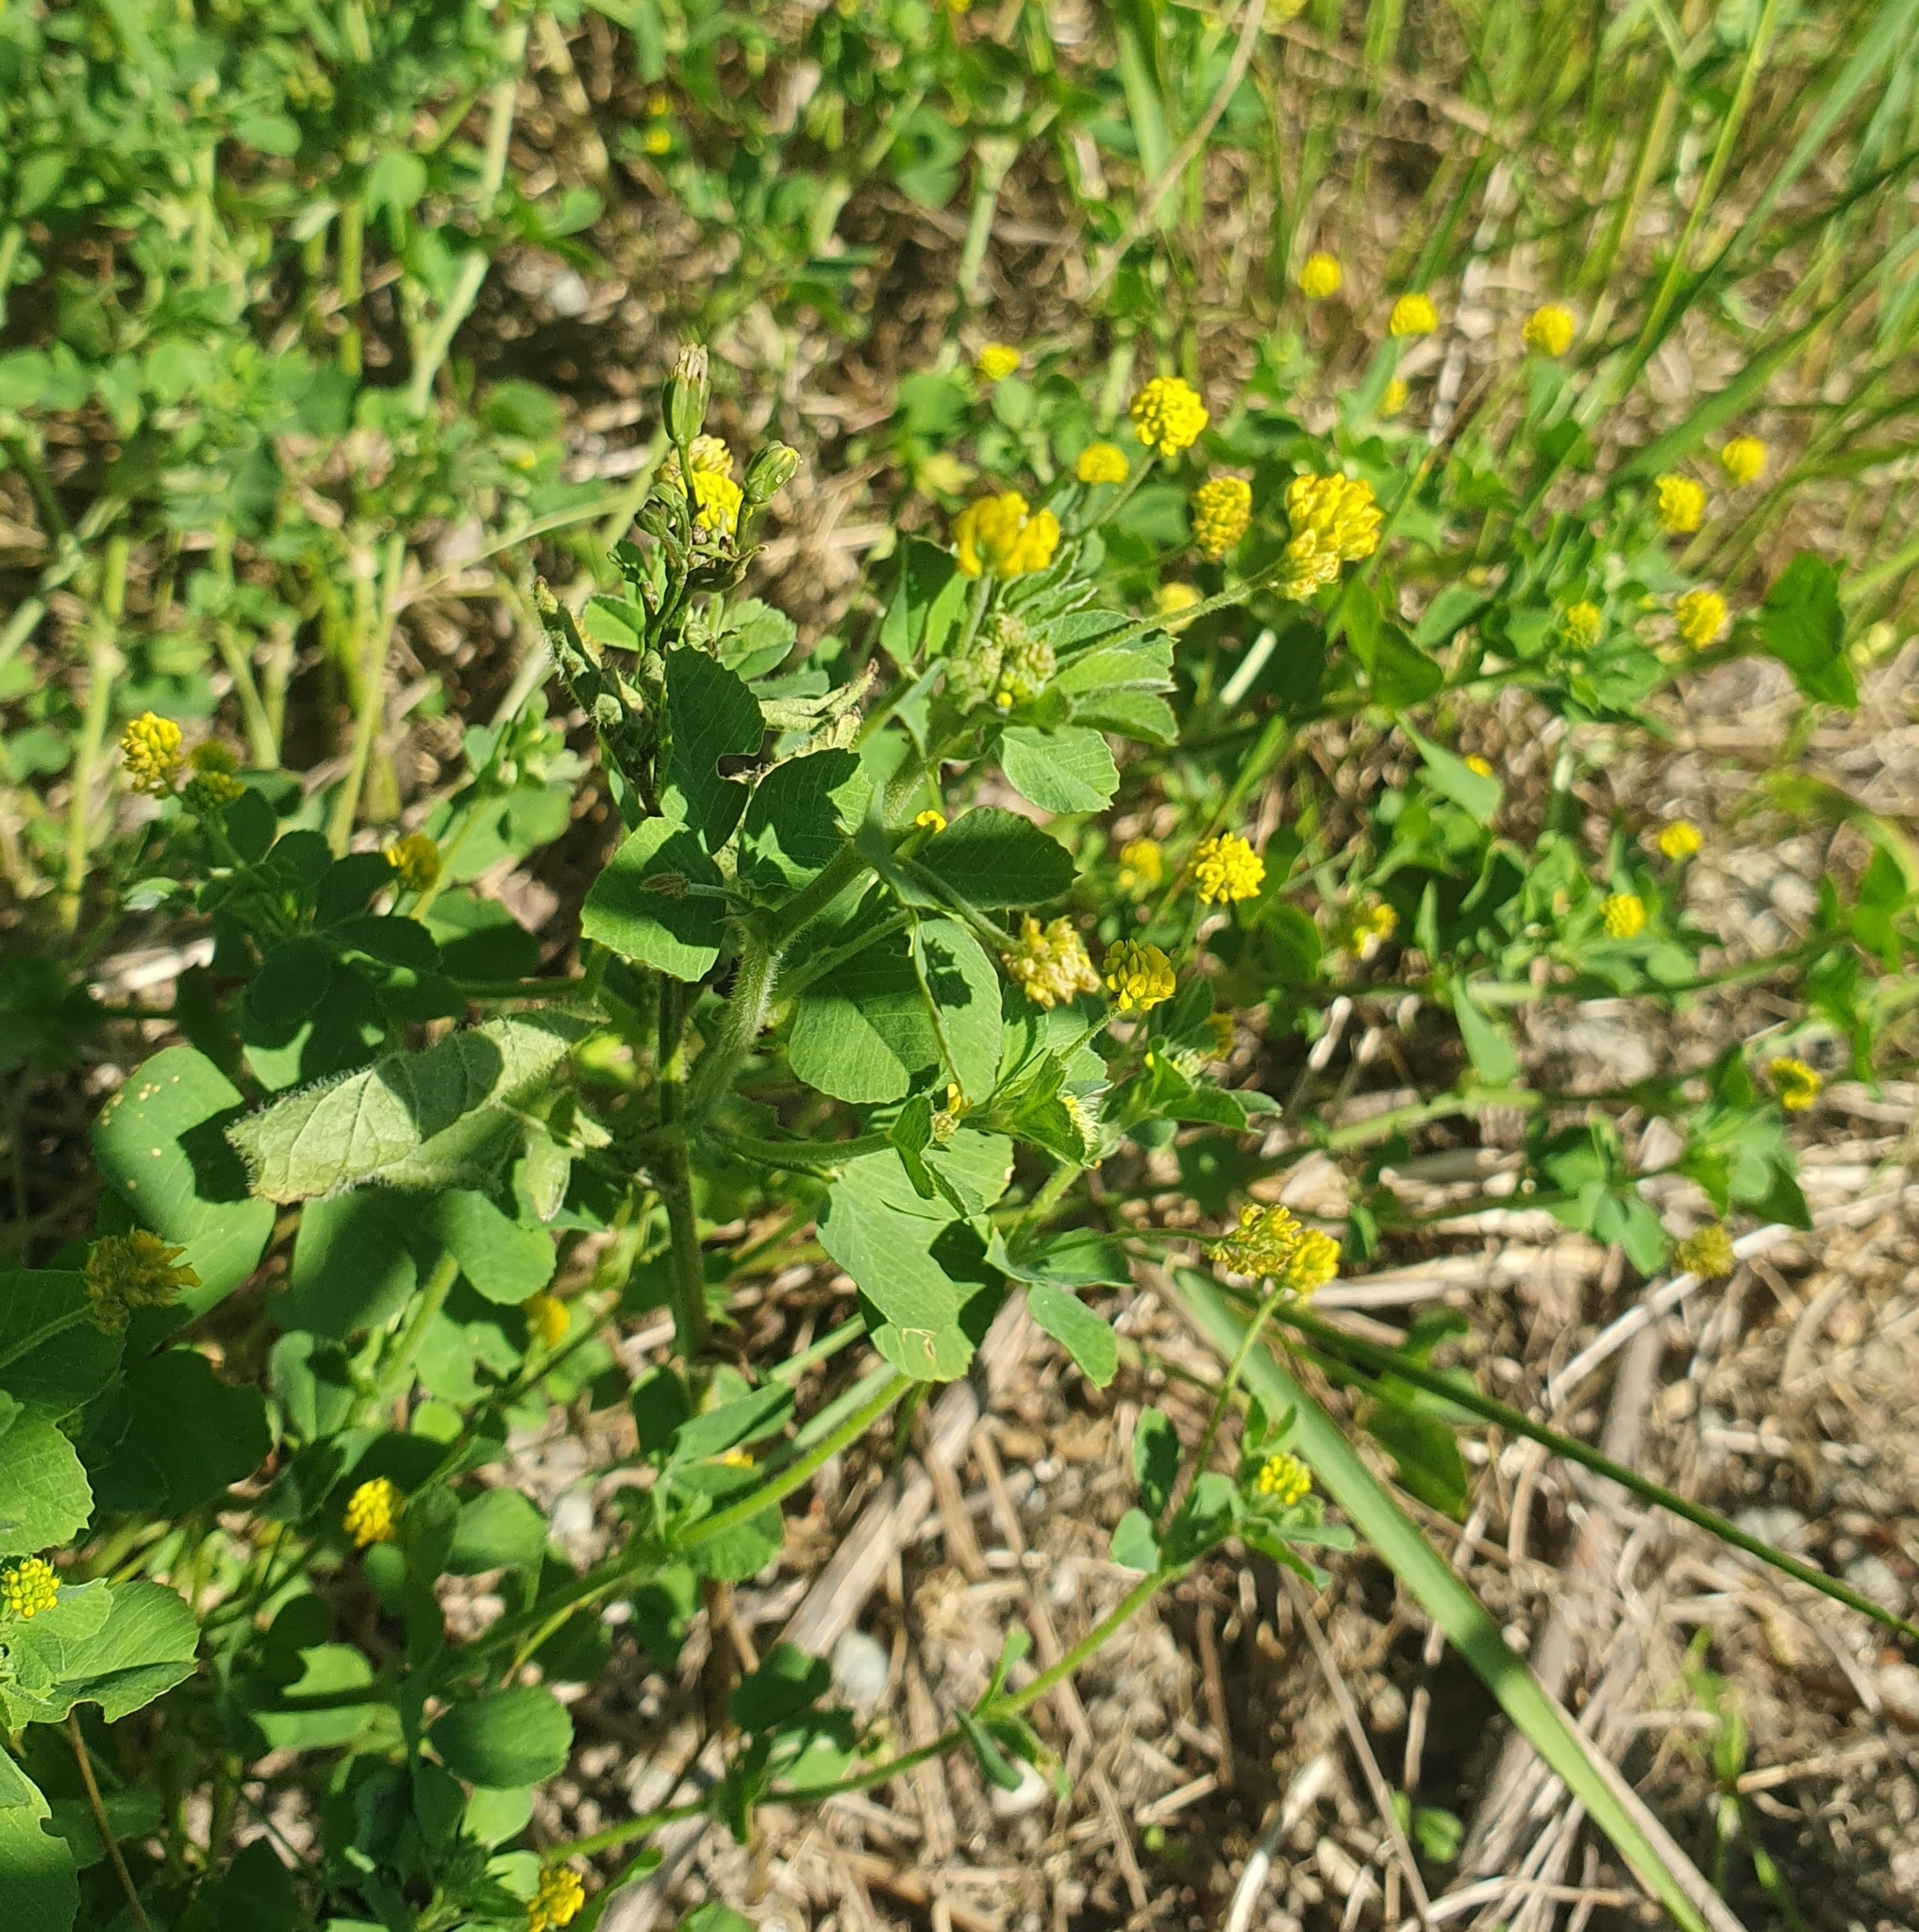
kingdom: Plantae
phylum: Tracheophyta
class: Magnoliopsida
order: Fabales
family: Fabaceae
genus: Medicago
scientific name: Medicago lupulina
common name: Black medick
